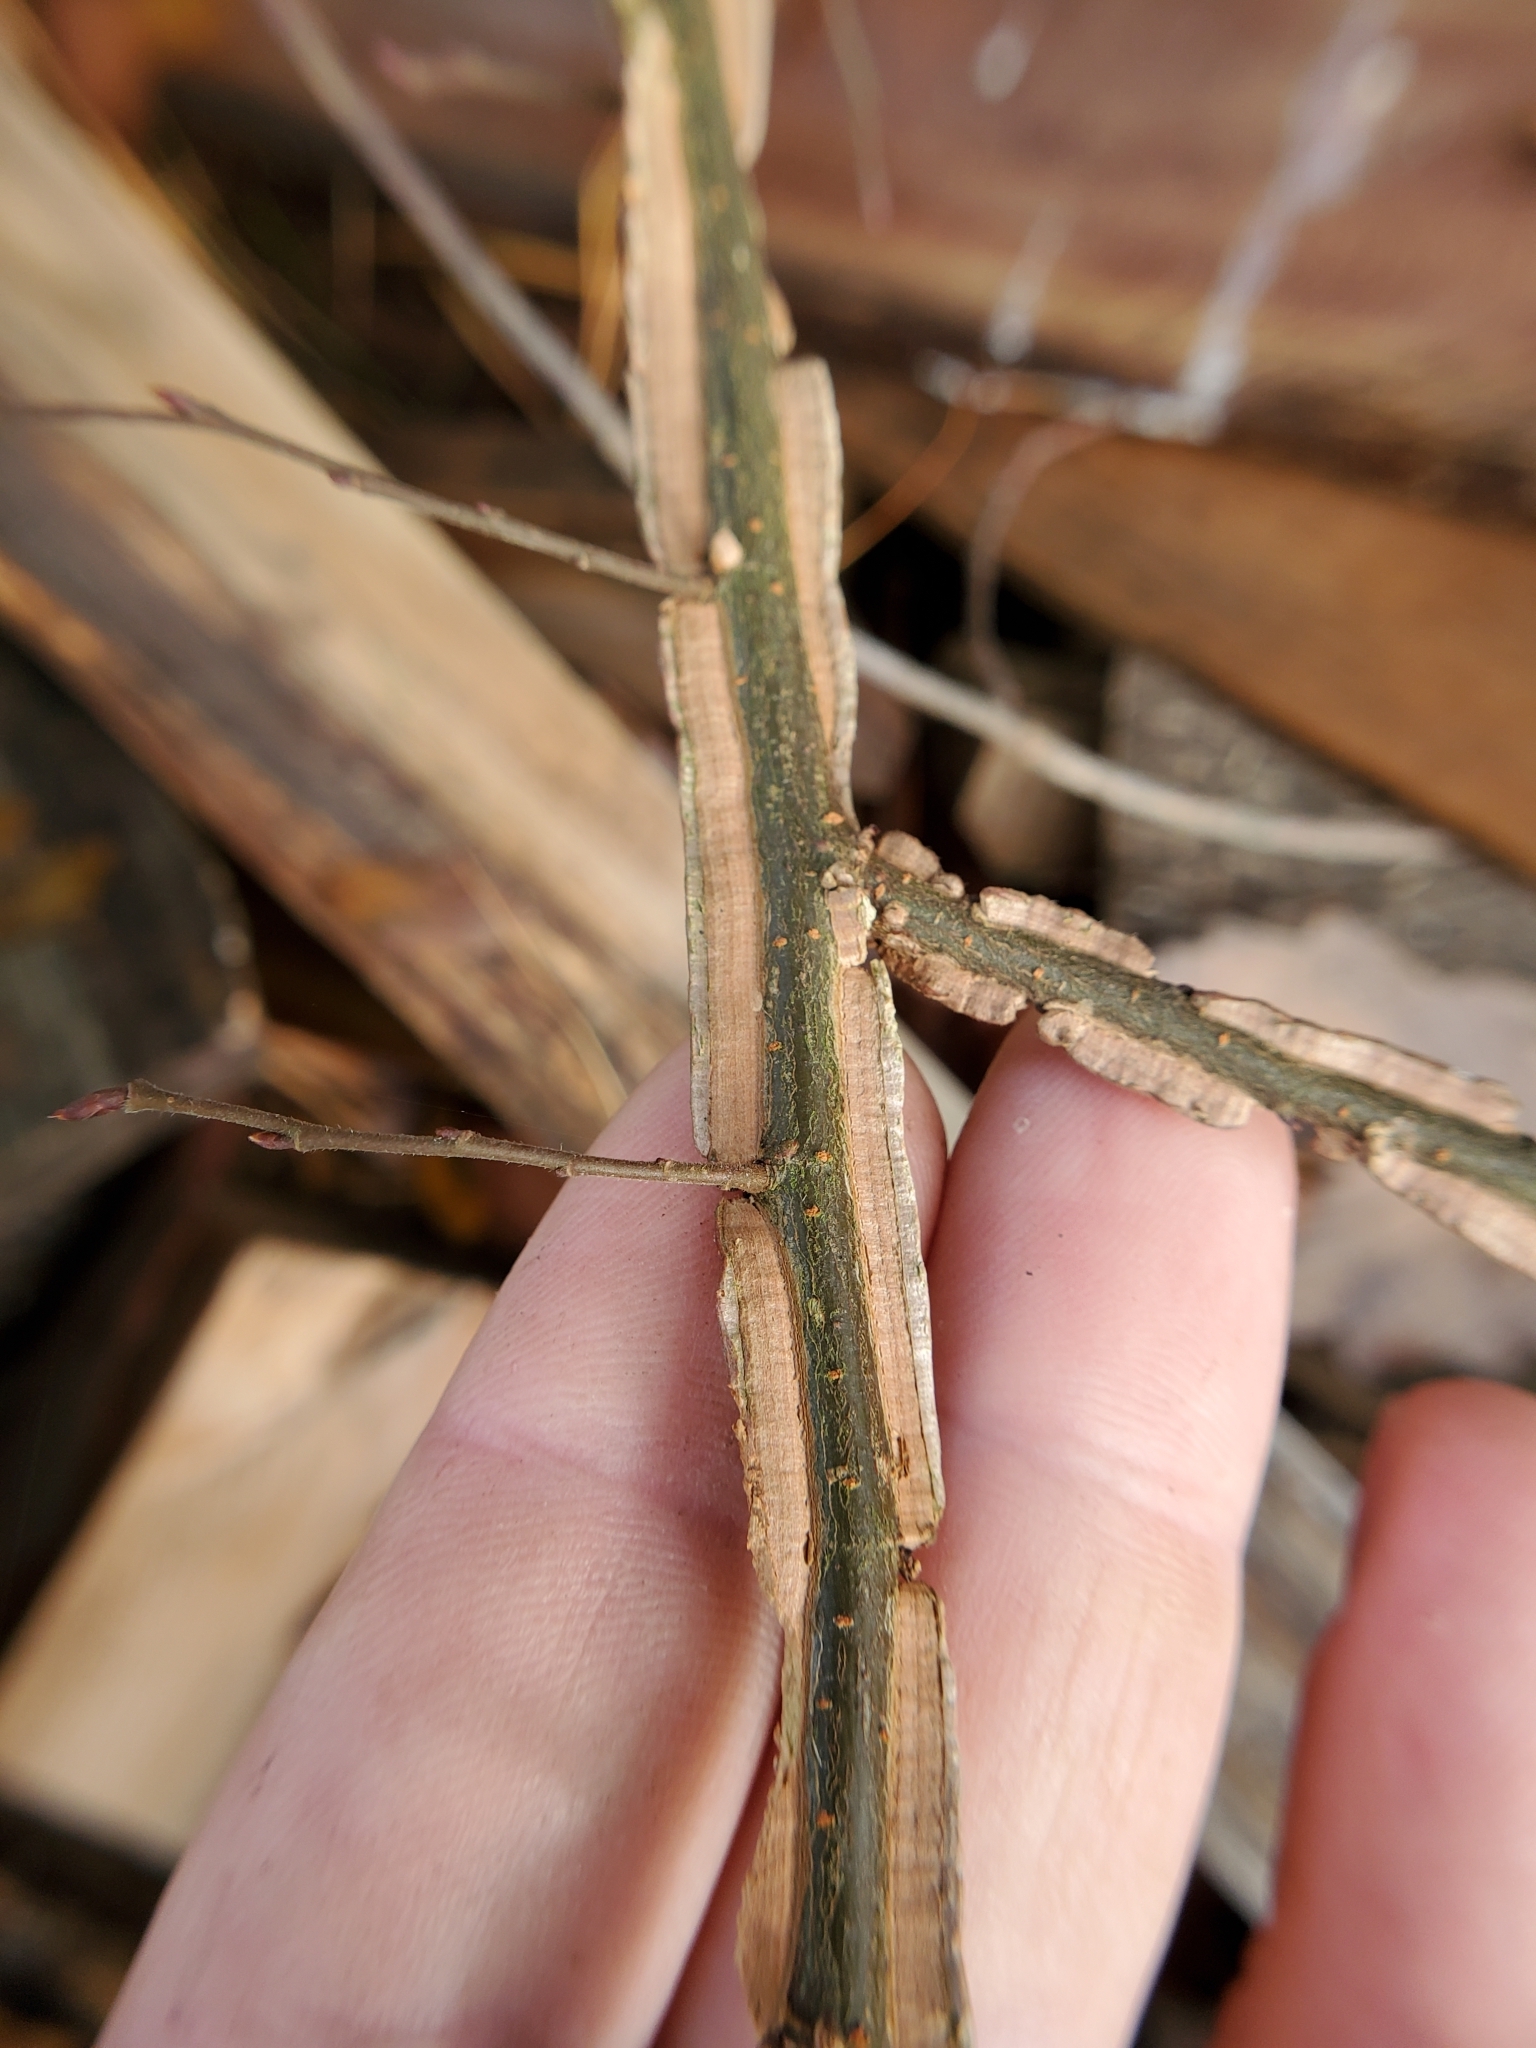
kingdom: Plantae
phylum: Tracheophyta
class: Magnoliopsida
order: Rosales
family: Ulmaceae
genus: Ulmus
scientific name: Ulmus alata
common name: Winged elm
